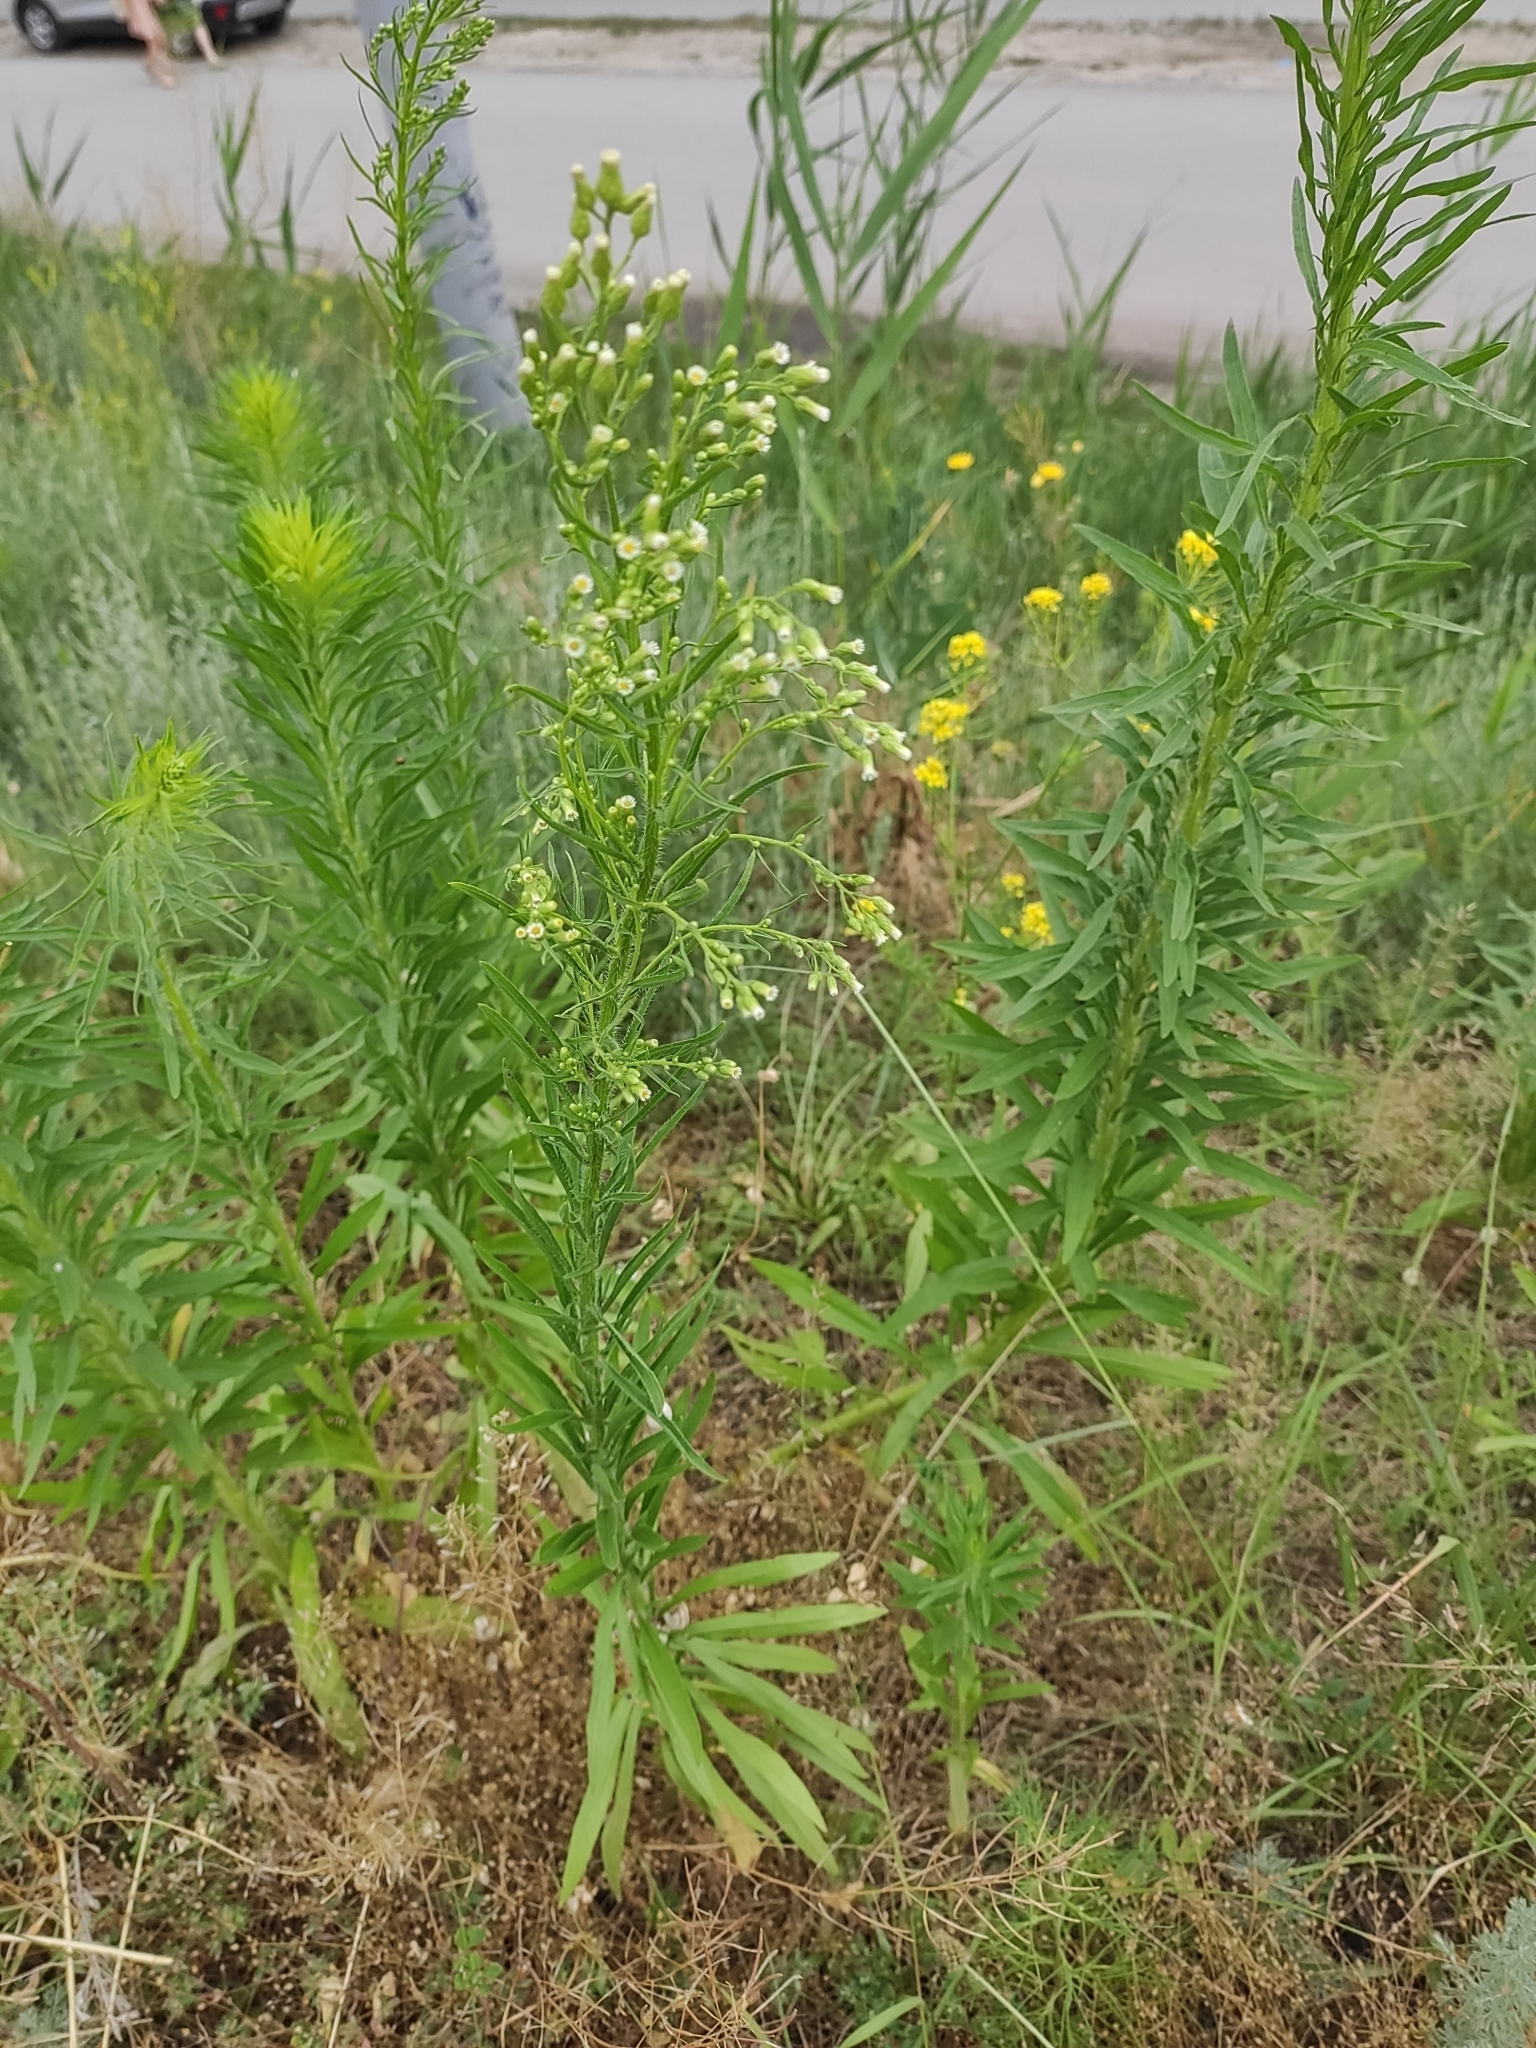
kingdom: Plantae
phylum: Tracheophyta
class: Magnoliopsida
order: Asterales
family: Asteraceae
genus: Erigeron
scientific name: Erigeron canadensis
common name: Canadian fleabane
